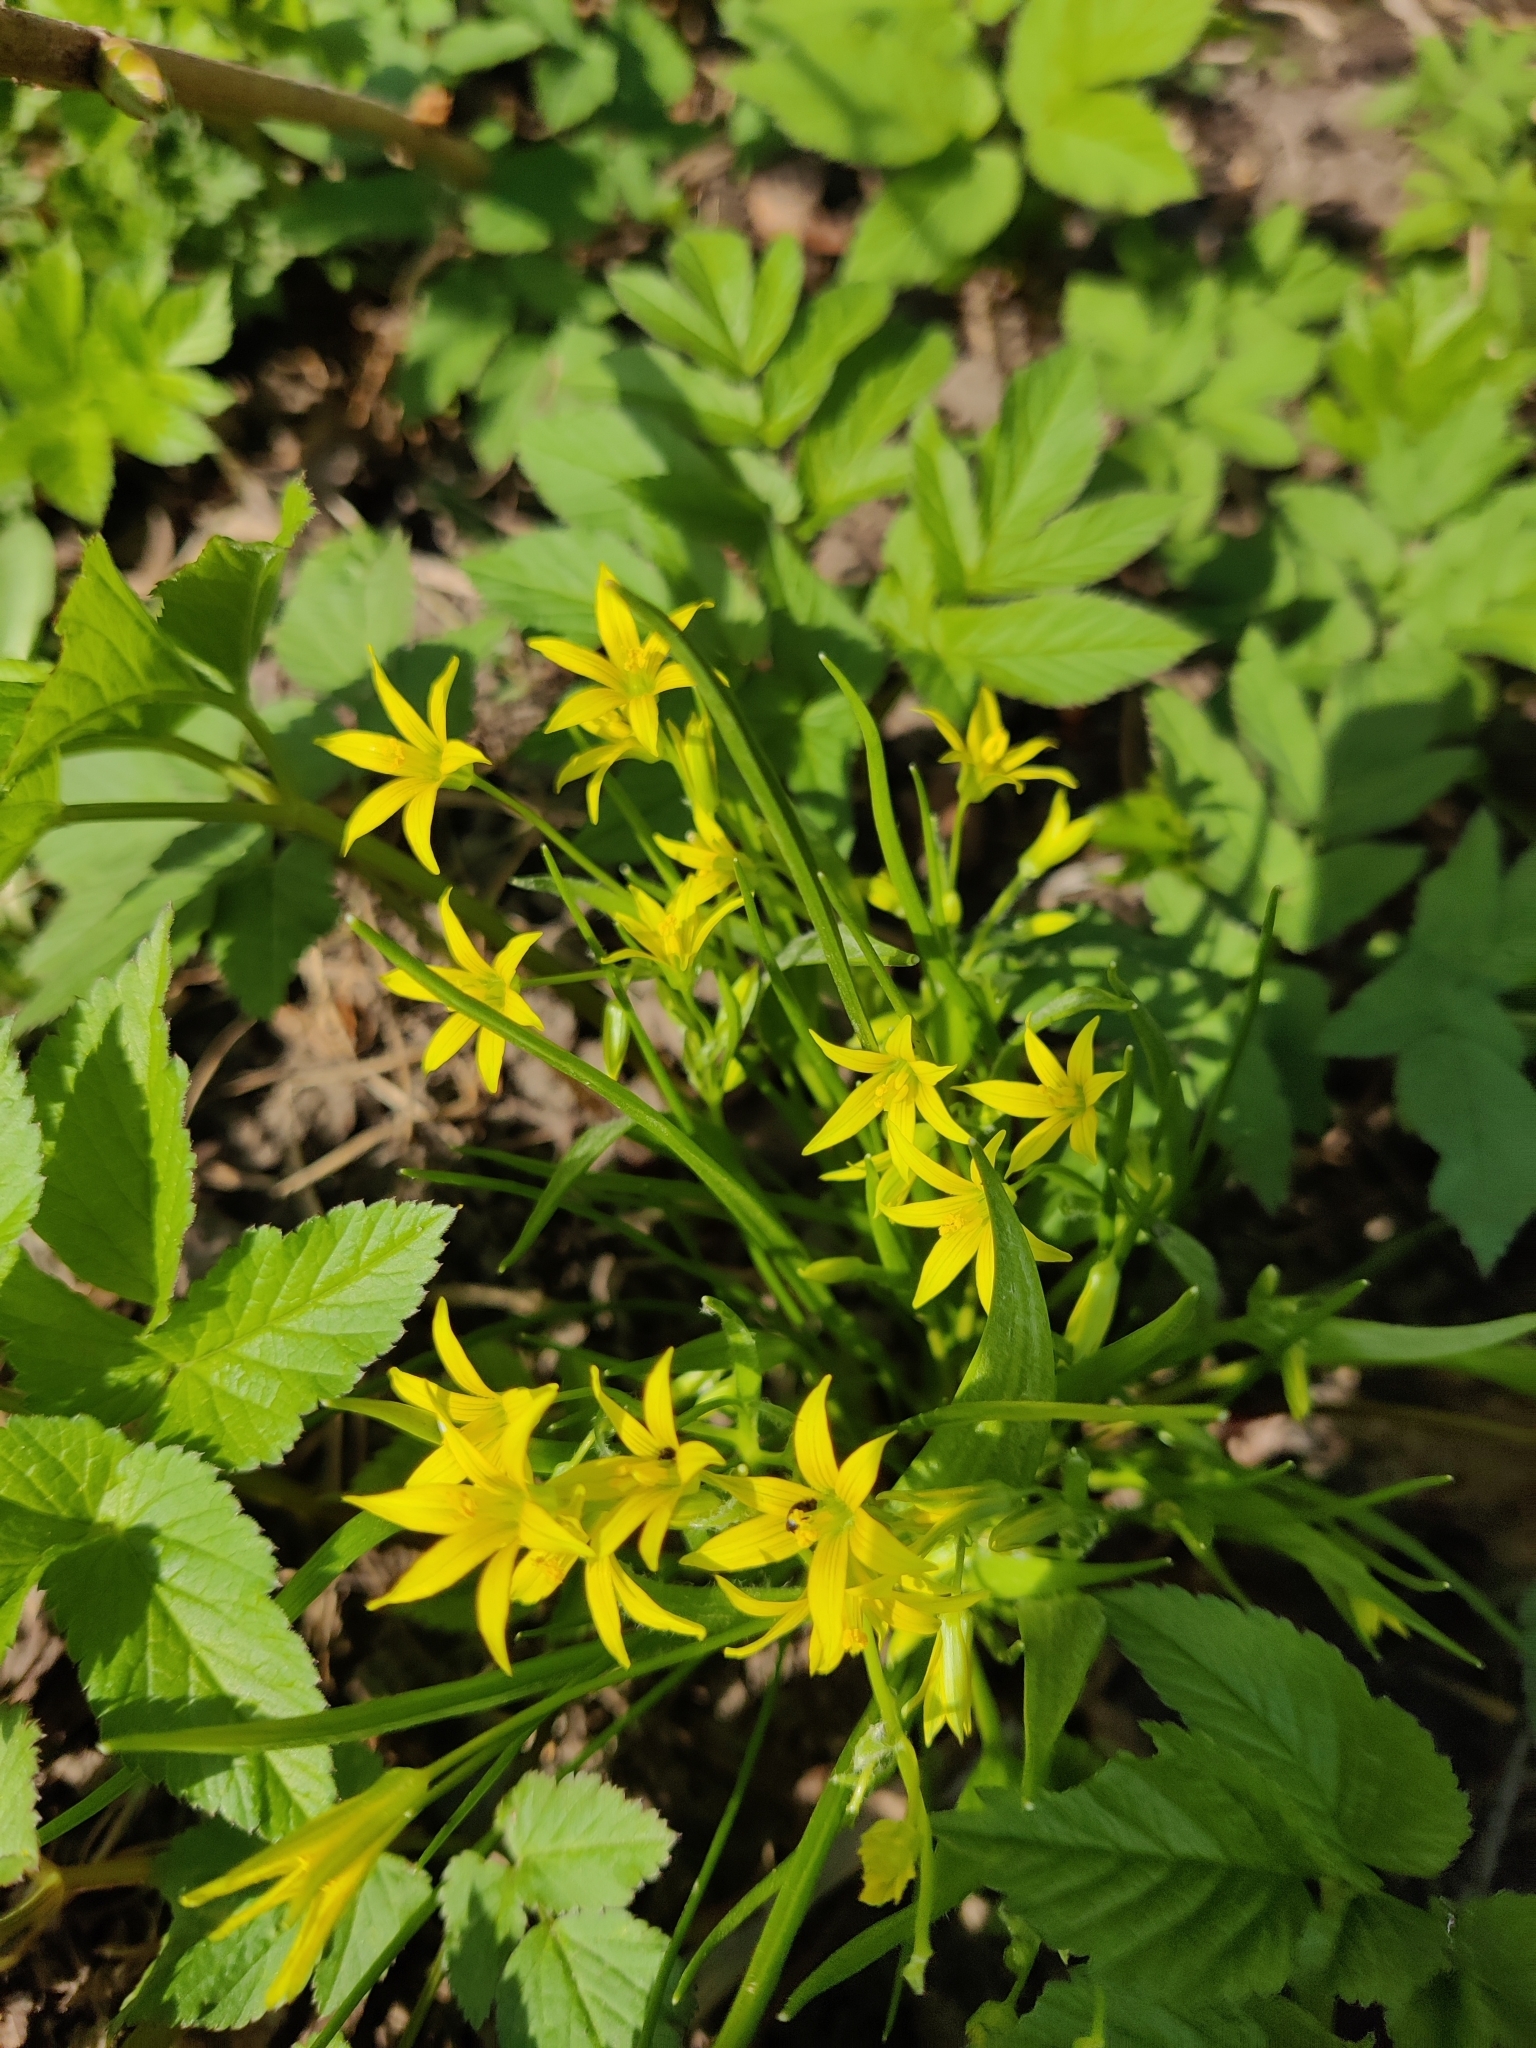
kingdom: Plantae
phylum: Tracheophyta
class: Liliopsida
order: Liliales
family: Liliaceae
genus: Gagea
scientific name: Gagea minima
